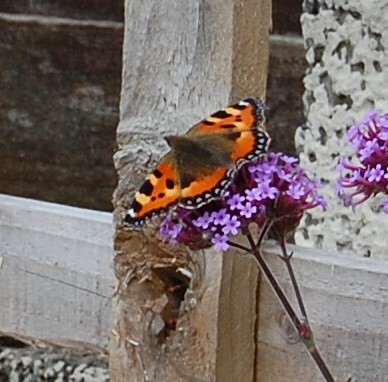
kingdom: Animalia
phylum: Arthropoda
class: Insecta
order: Lepidoptera
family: Nymphalidae
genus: Aglais
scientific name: Aglais urticae
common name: Small tortoiseshell
